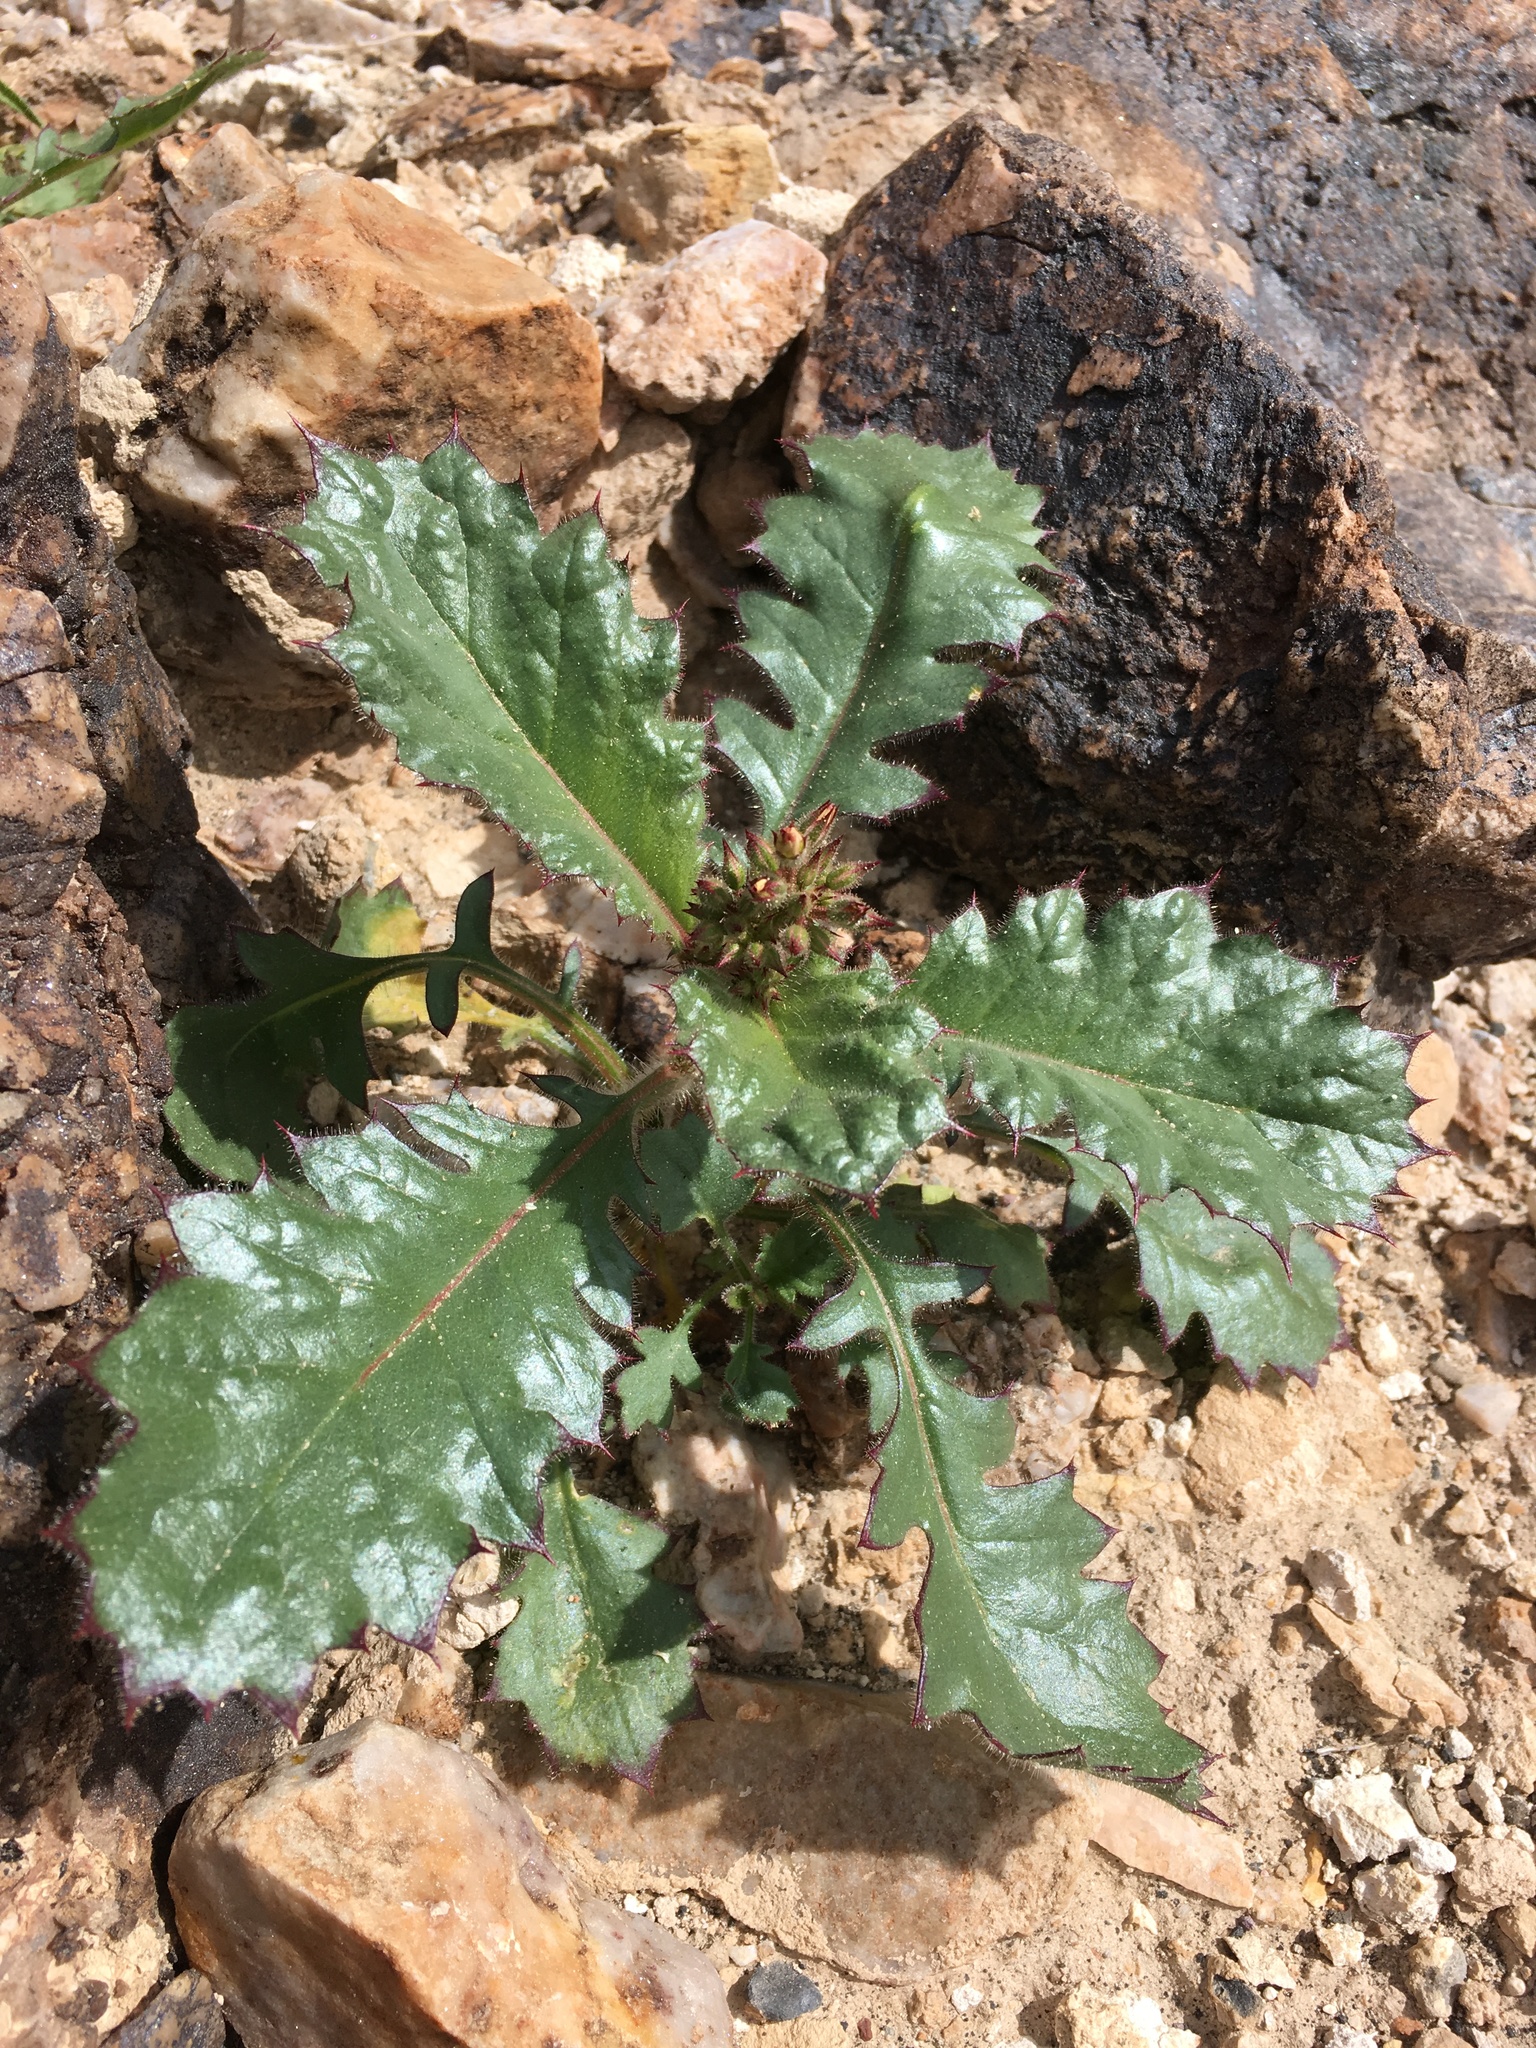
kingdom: Plantae
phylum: Tracheophyta
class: Magnoliopsida
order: Ericales
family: Polemoniaceae
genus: Aliciella
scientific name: Aliciella latifolia
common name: Broad-leaf gilia
